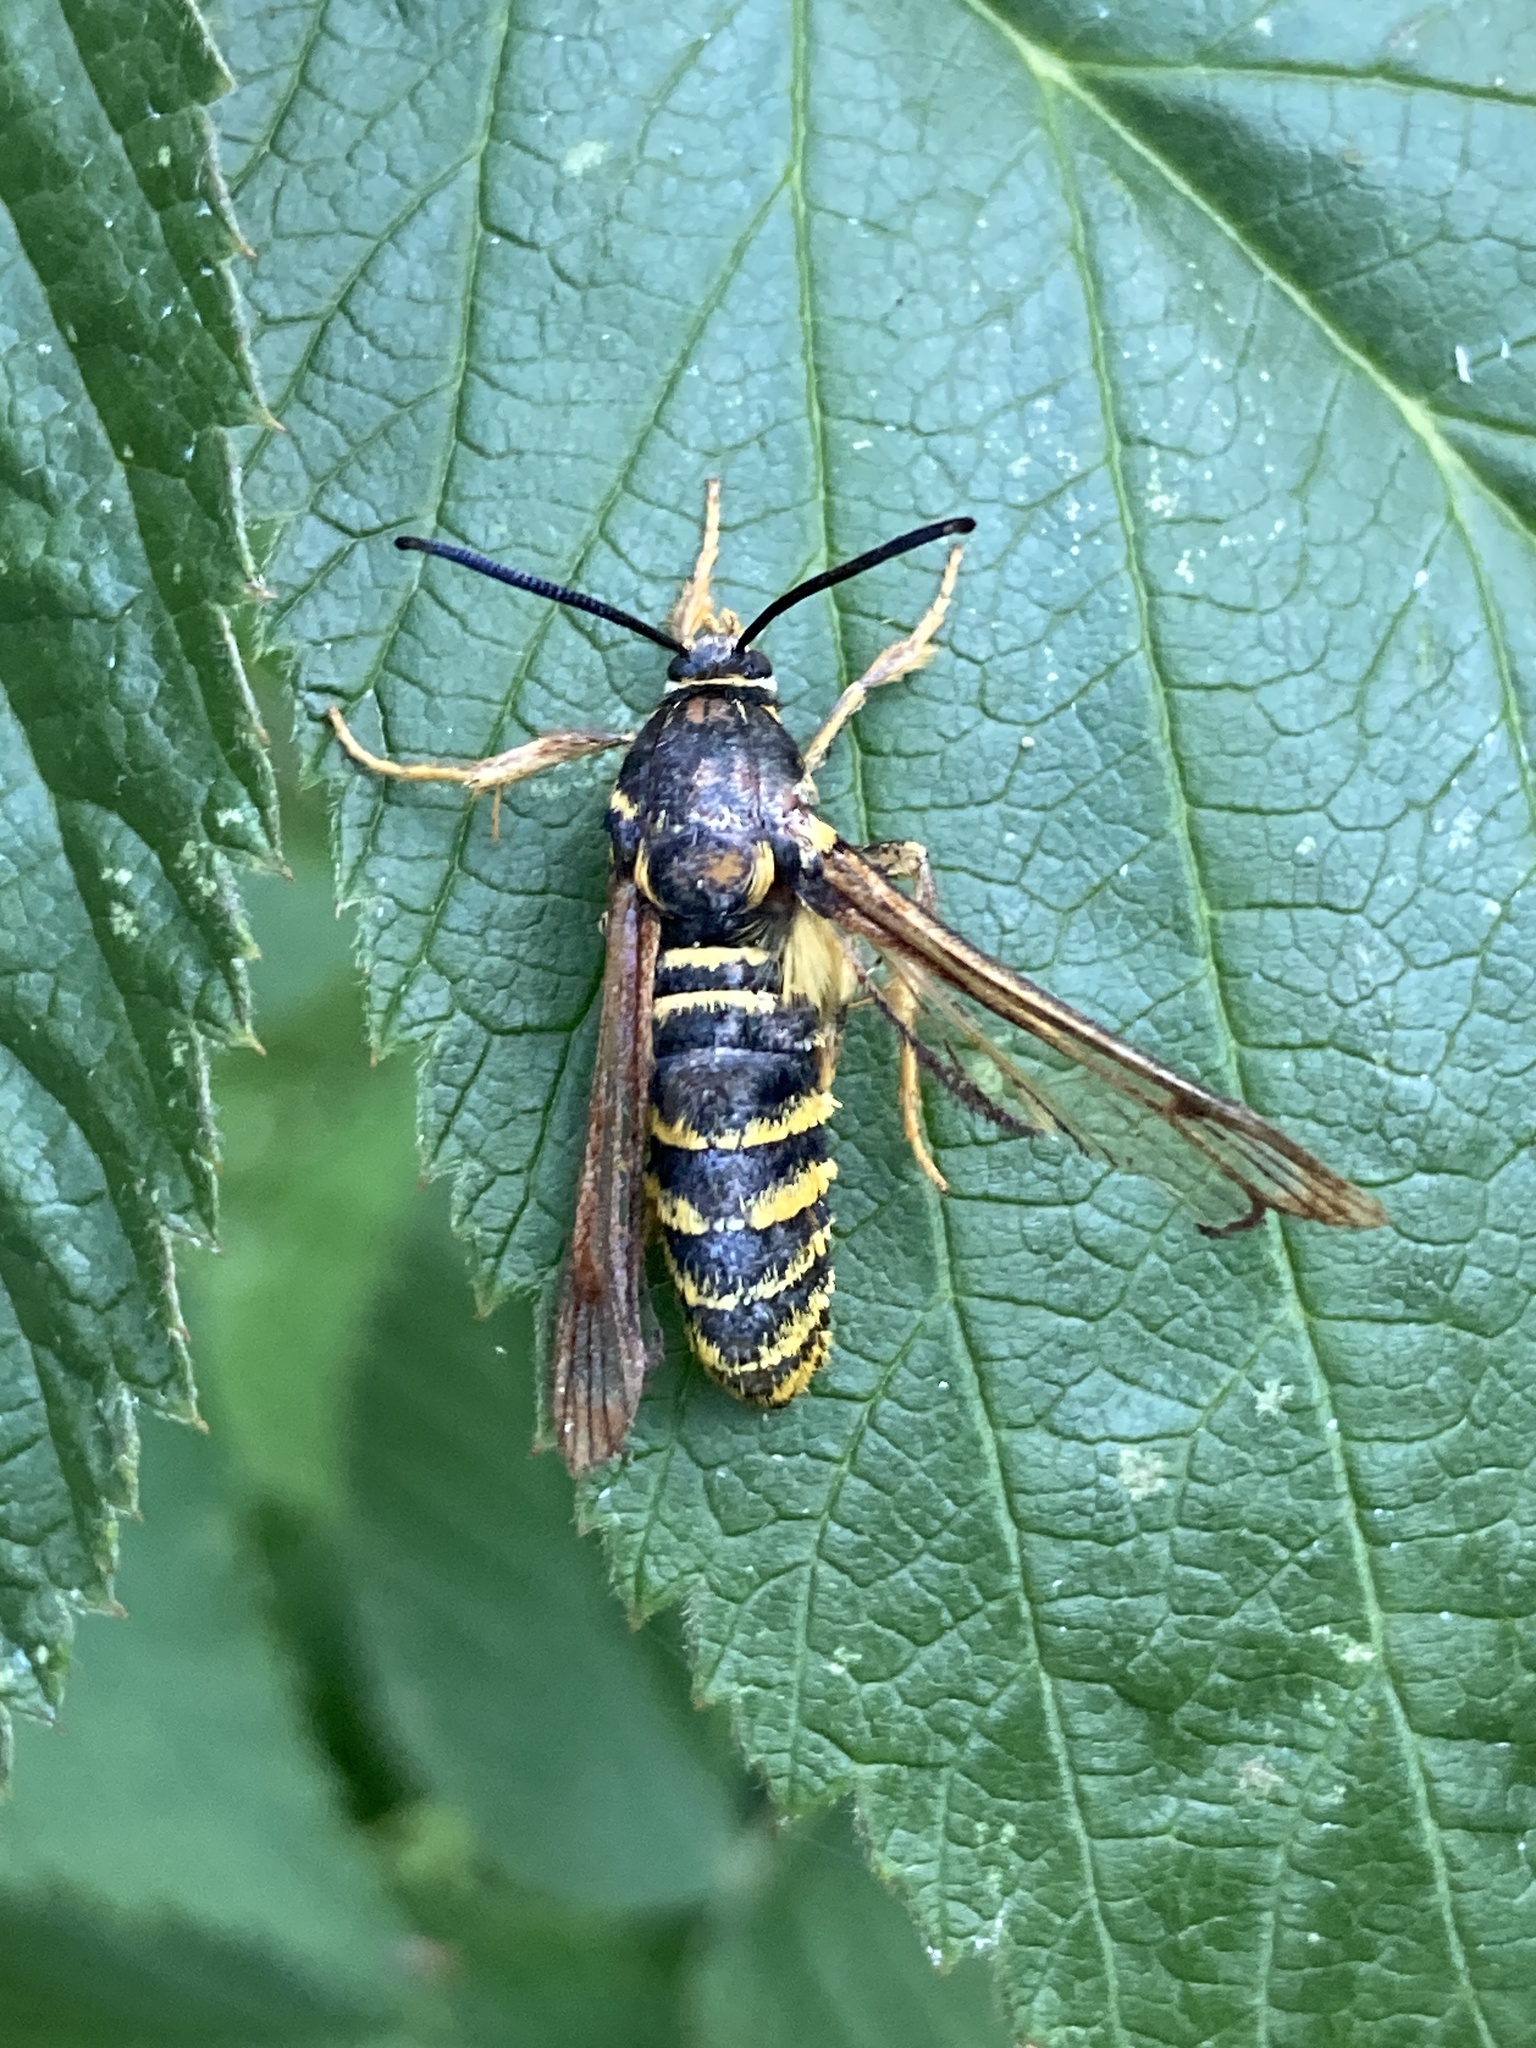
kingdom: Animalia
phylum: Arthropoda
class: Insecta
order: Lepidoptera
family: Sesiidae
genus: Pennisetia
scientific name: Pennisetia marginatum
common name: Raspberry crown borer
